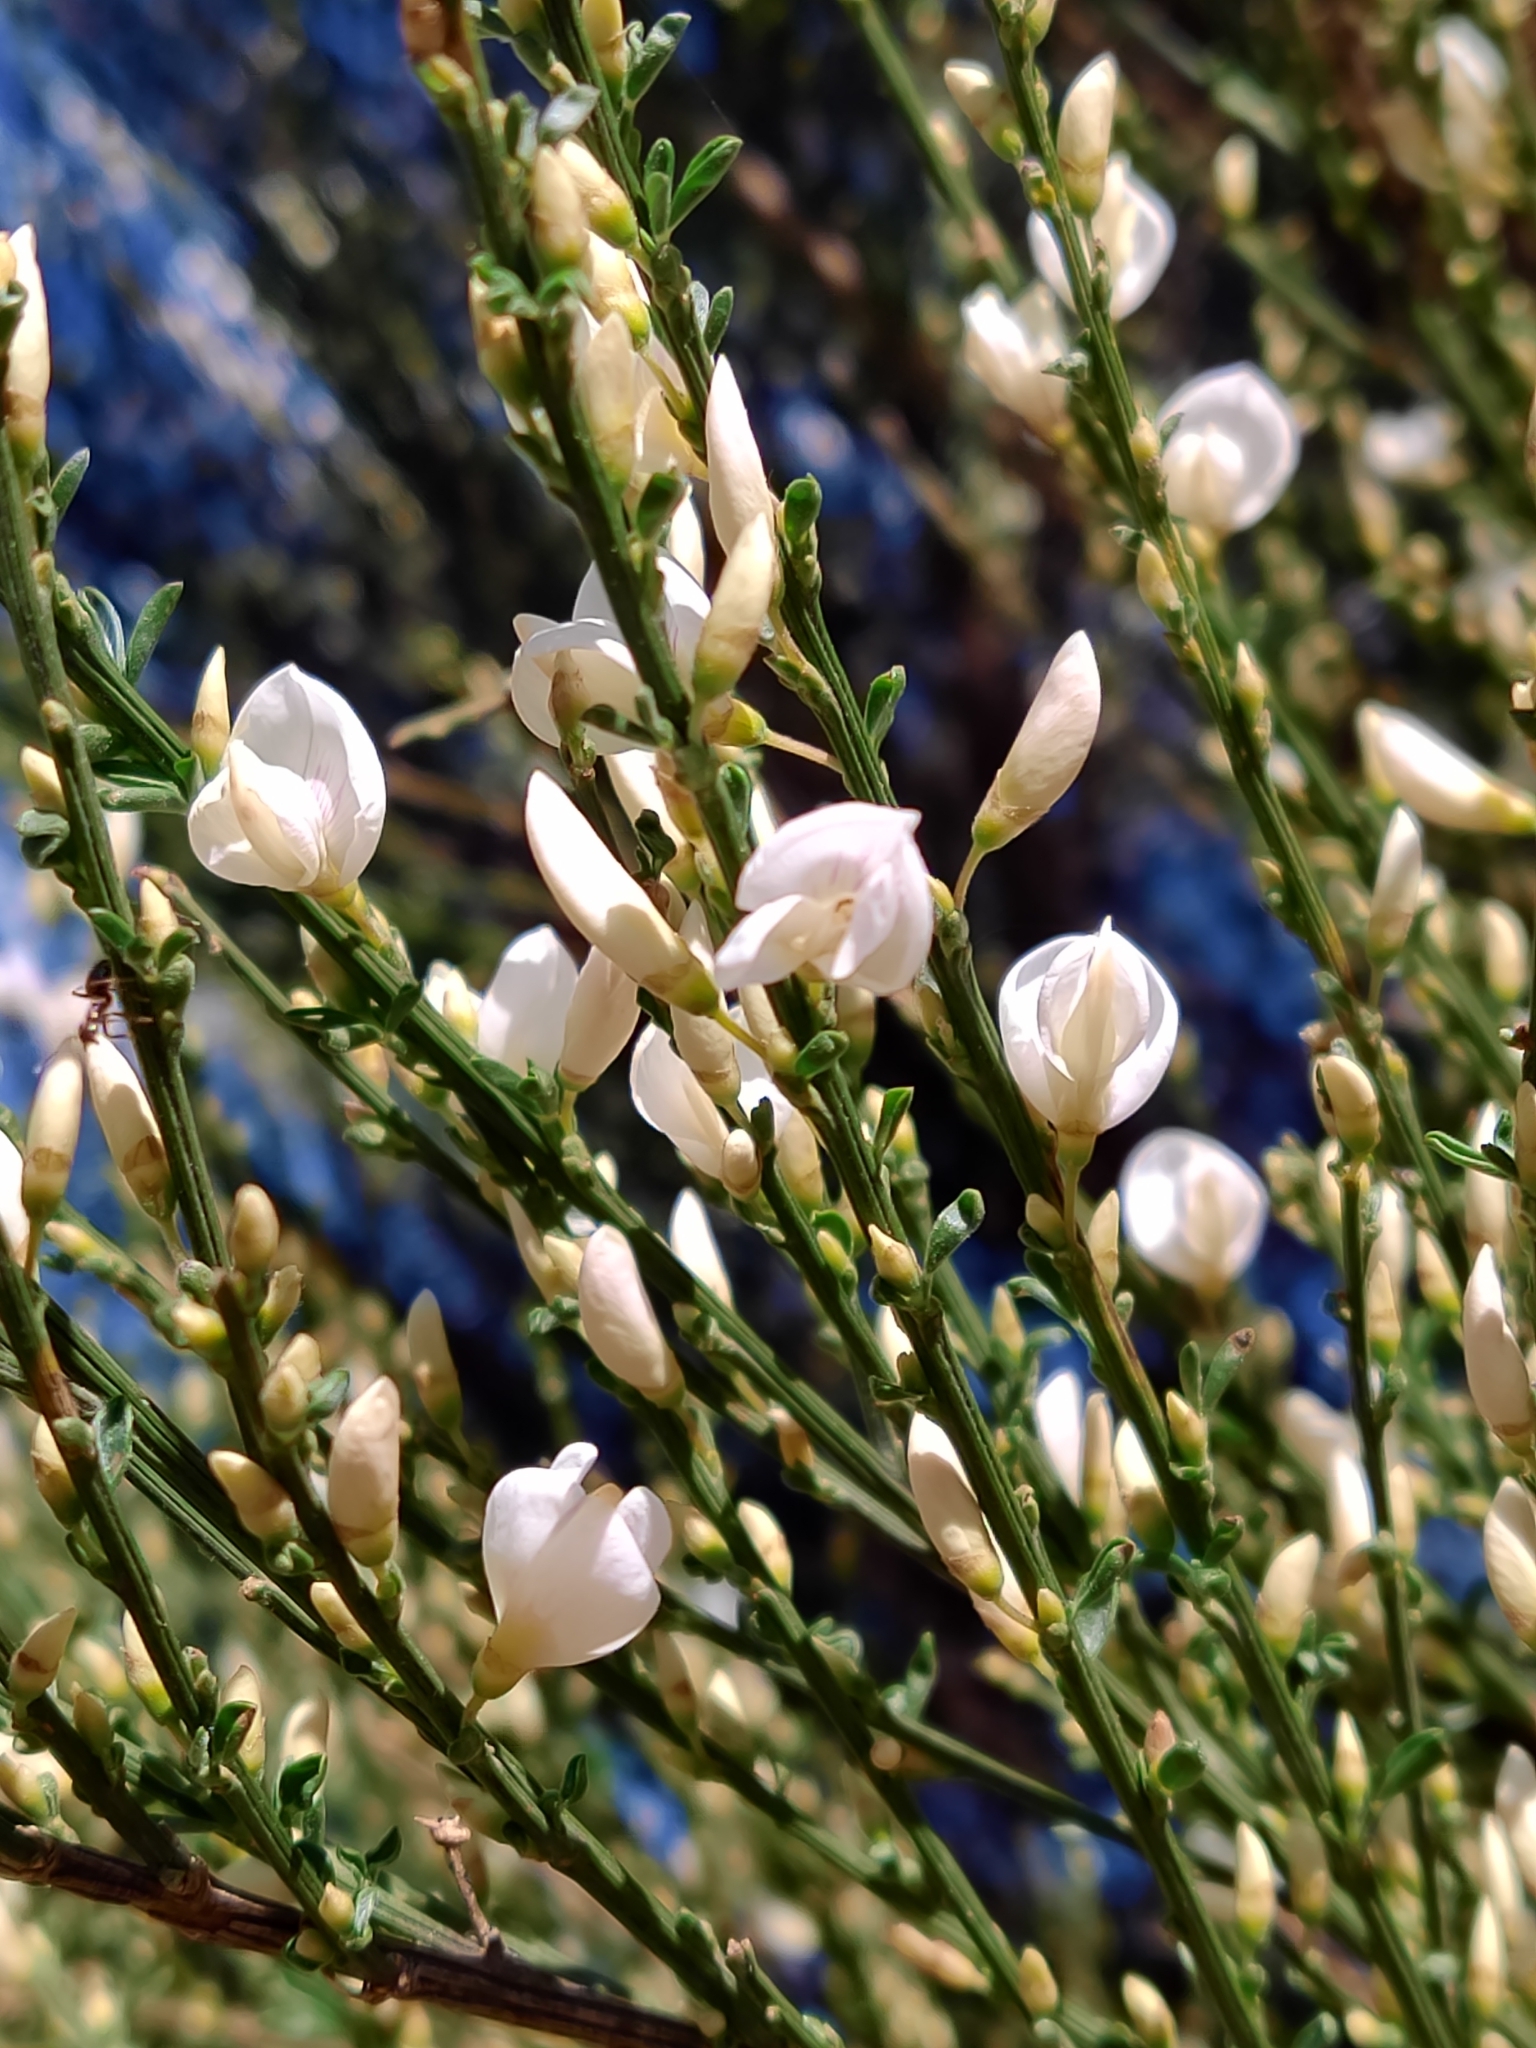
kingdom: Plantae
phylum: Tracheophyta
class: Magnoliopsida
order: Fabales
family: Fabaceae
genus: Cytisus
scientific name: Cytisus multiflorus
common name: White broom
